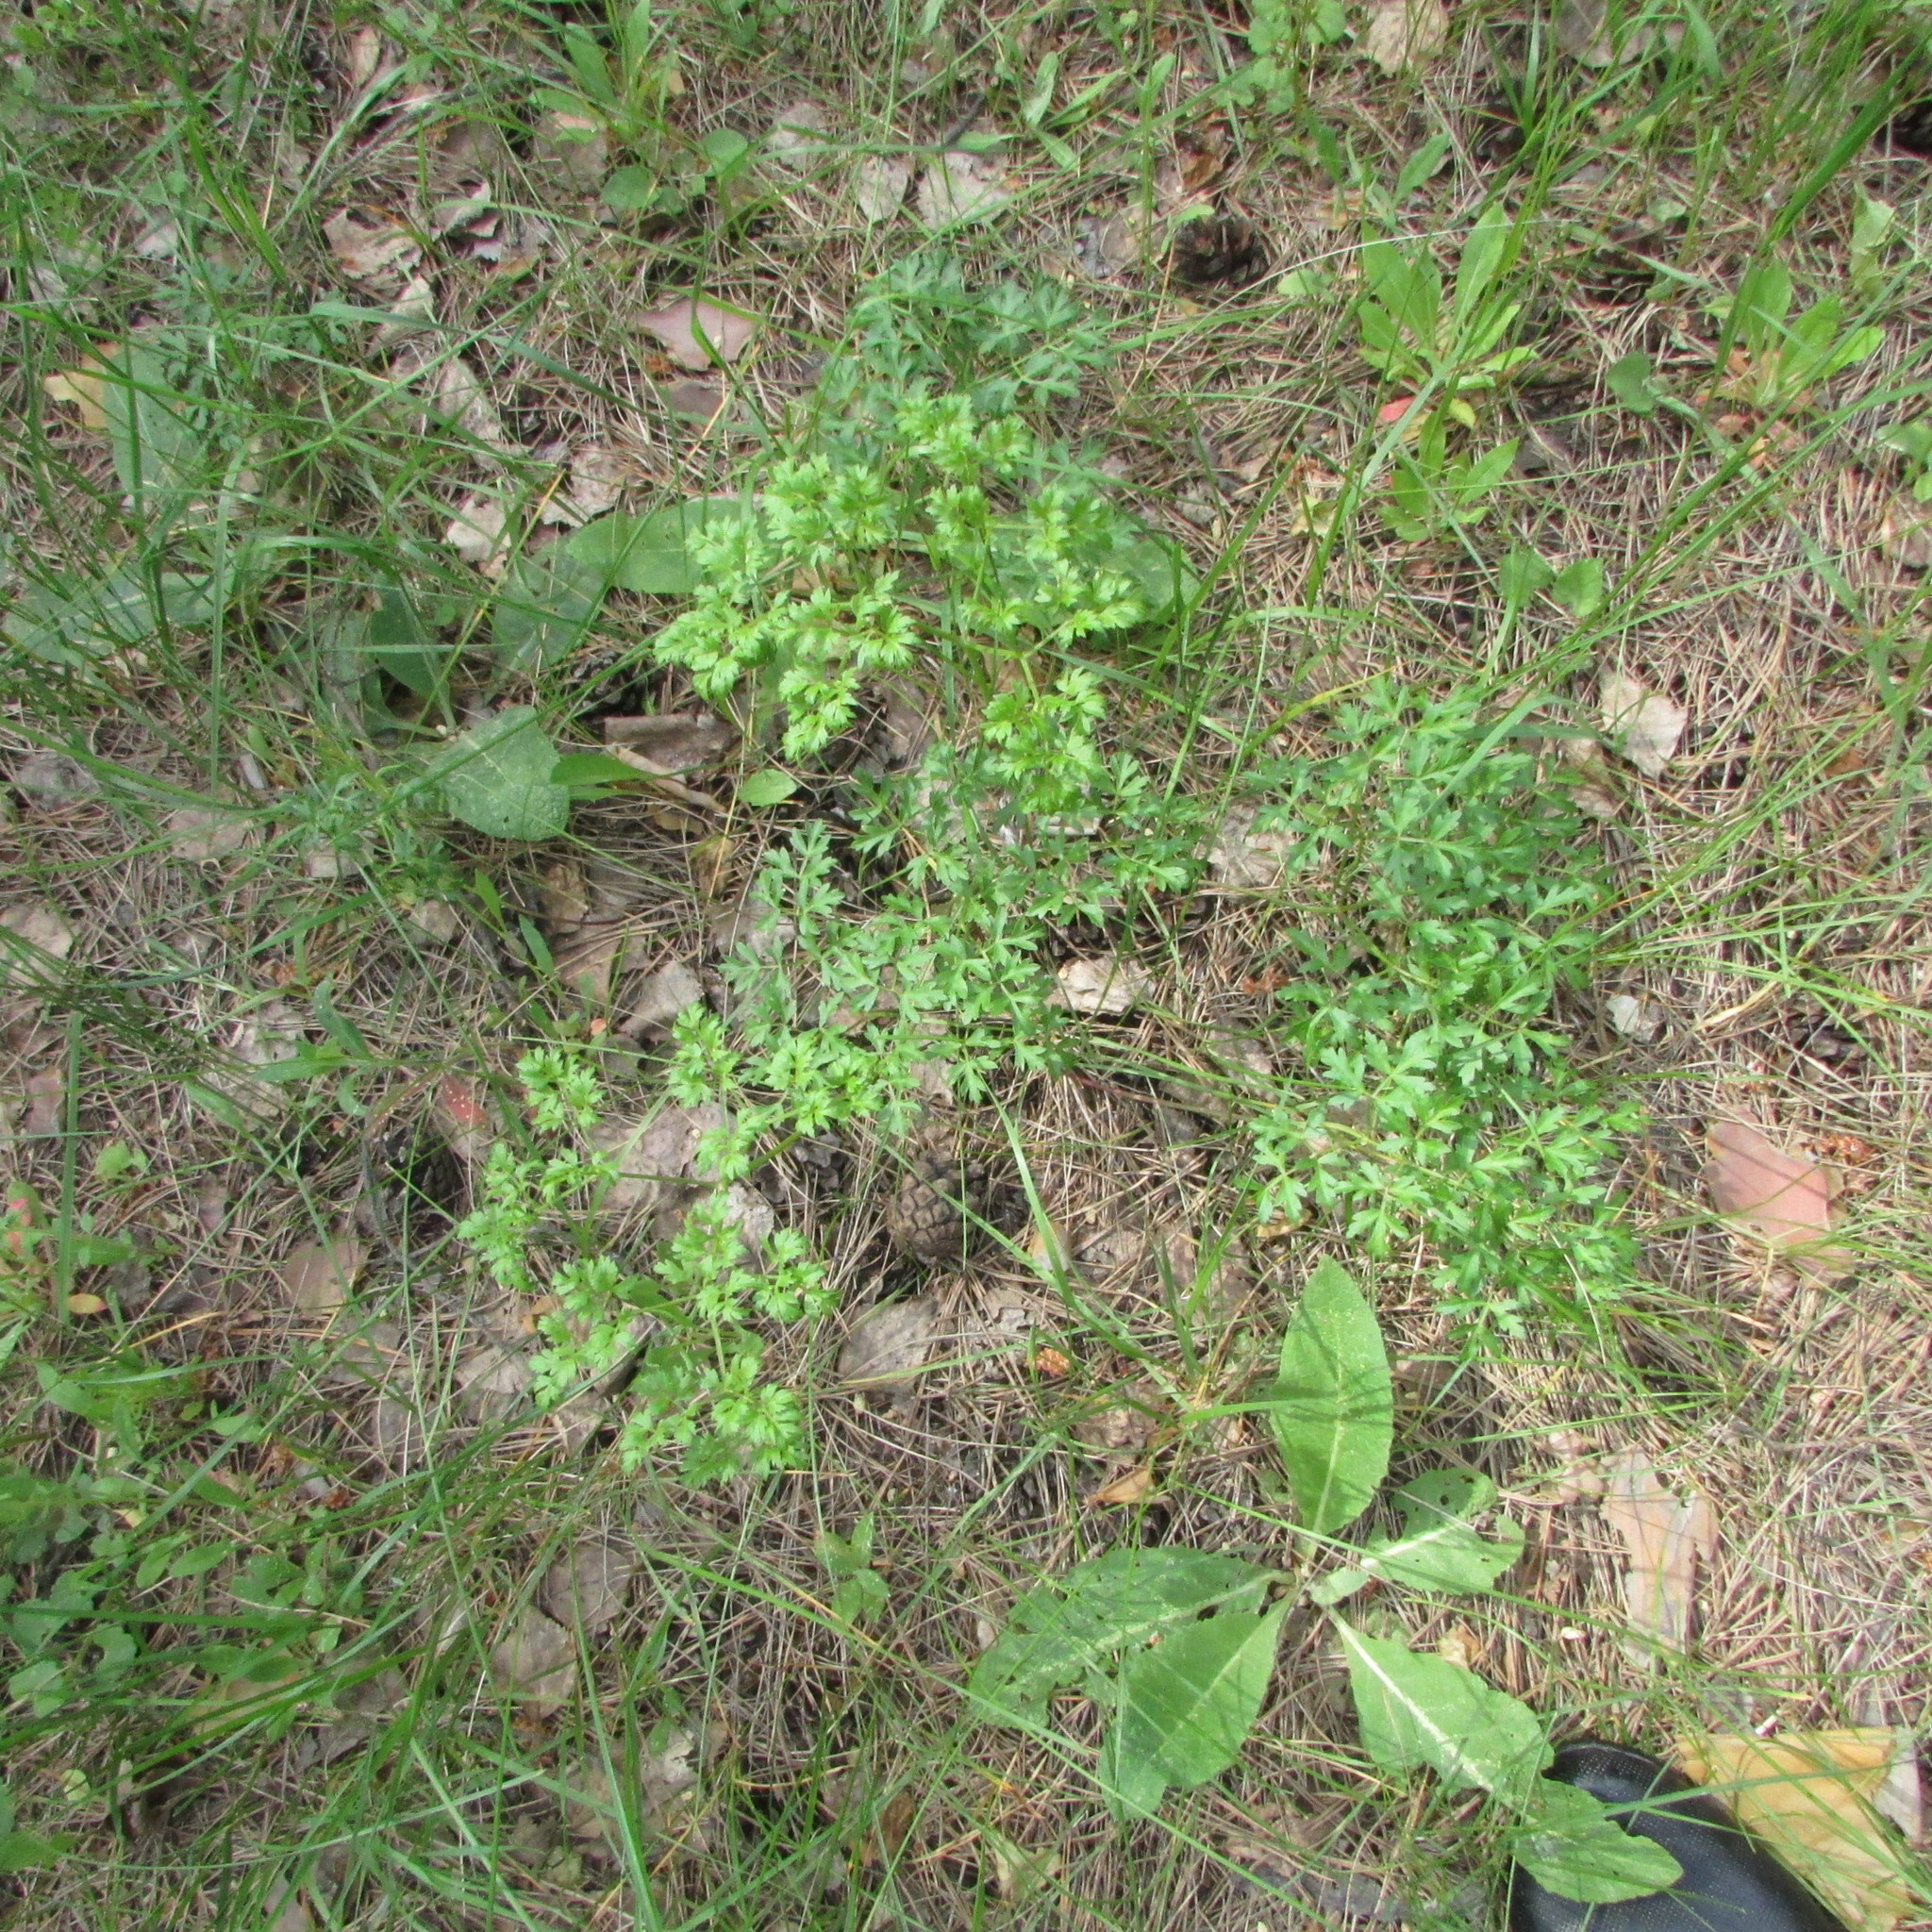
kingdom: Plantae
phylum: Tracheophyta
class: Magnoliopsida
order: Apiales
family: Apiaceae
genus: Oreoselinum
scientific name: Oreoselinum nigrum
